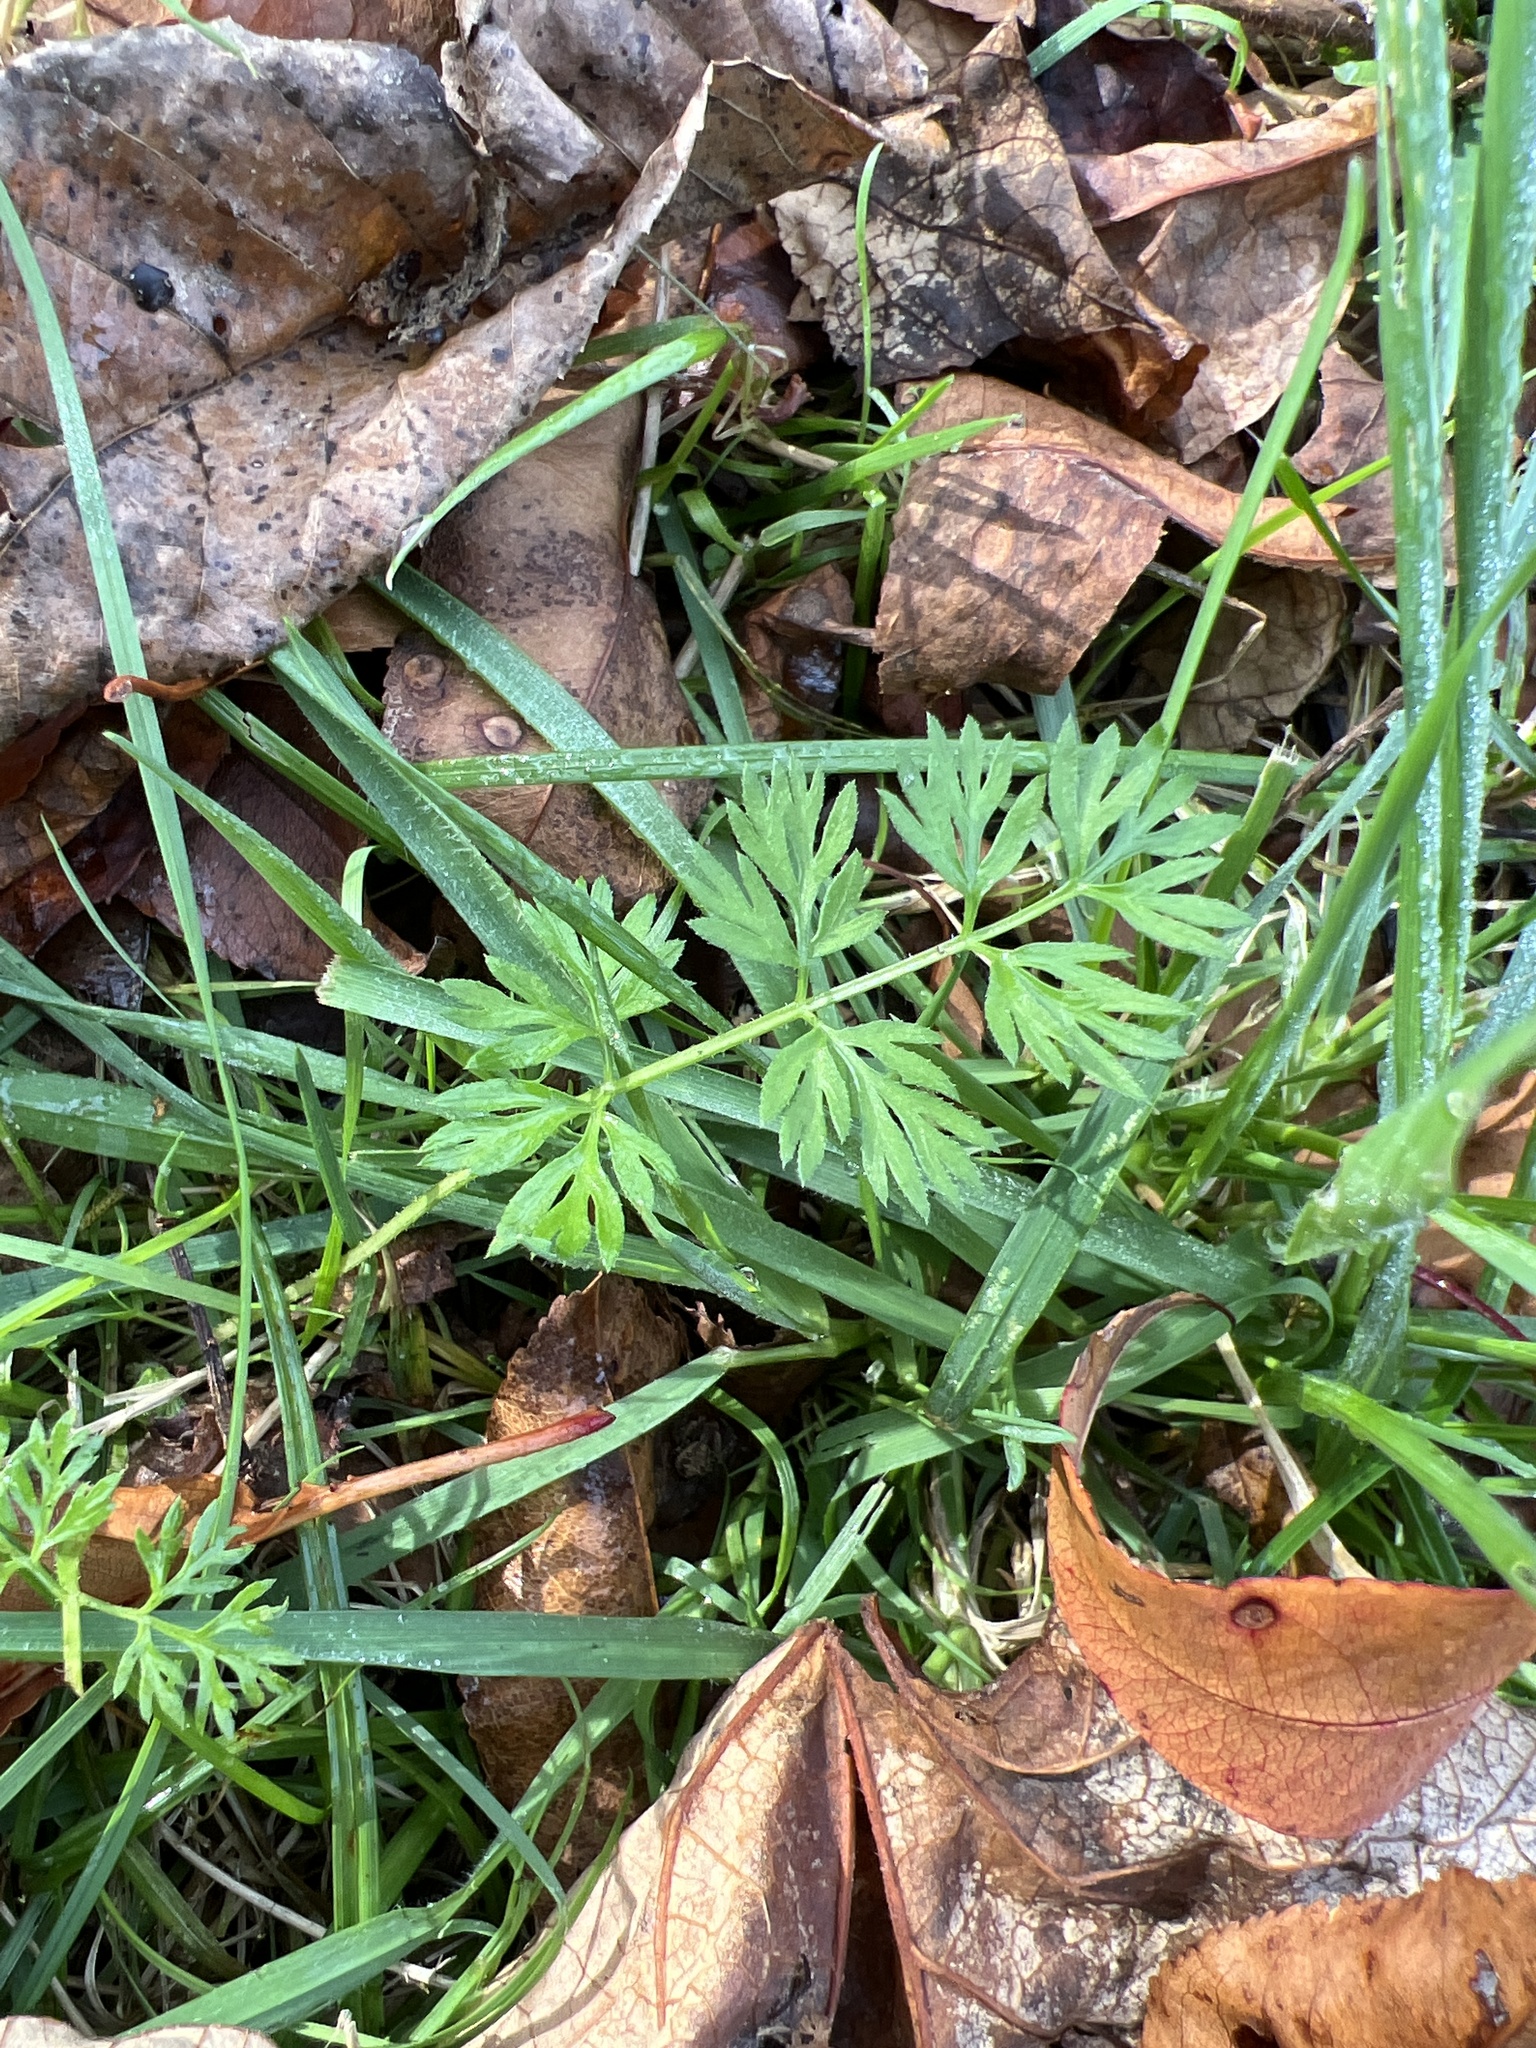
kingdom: Plantae
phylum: Tracheophyta
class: Magnoliopsida
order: Apiales
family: Apiaceae
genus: Daucus
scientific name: Daucus carota
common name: Wild carrot
